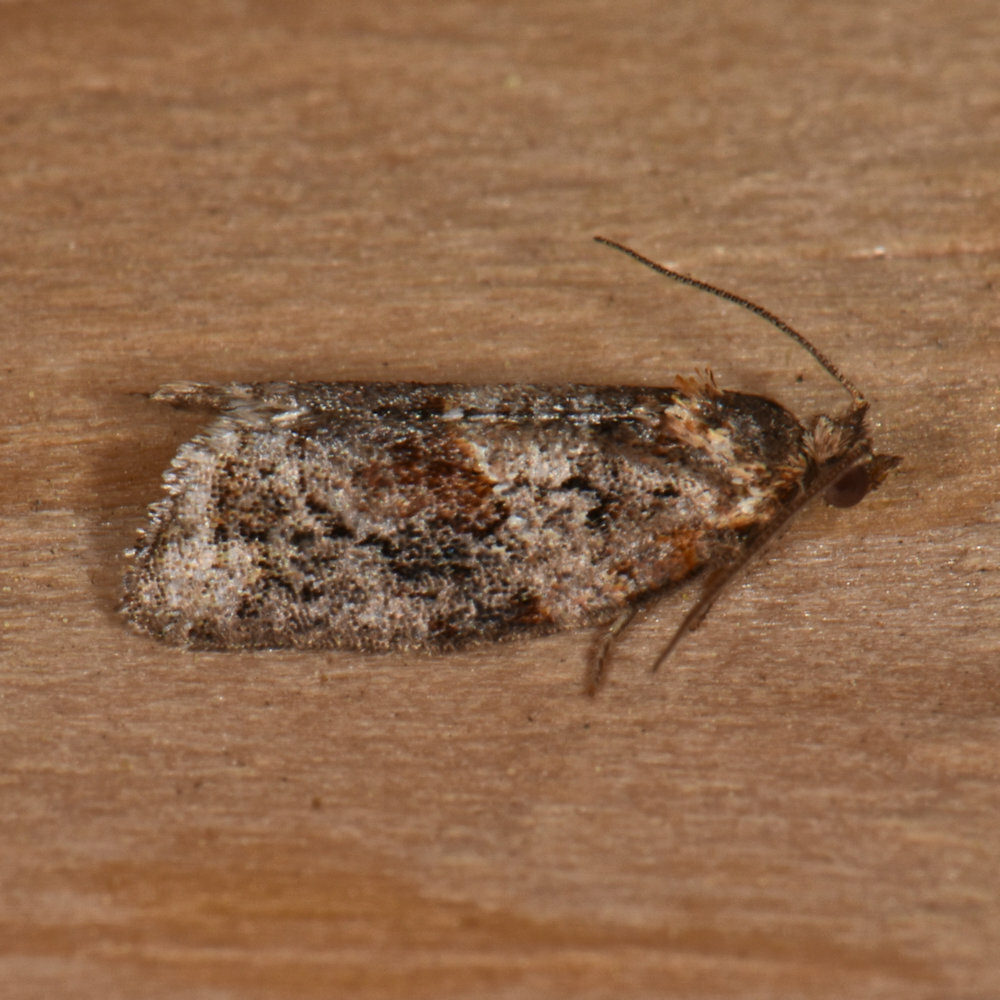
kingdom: Animalia
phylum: Arthropoda
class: Insecta
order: Lepidoptera
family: Tortricidae
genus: Argyrotaenia
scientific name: Argyrotaenia velutinana
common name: Red-banded leafroller moth
